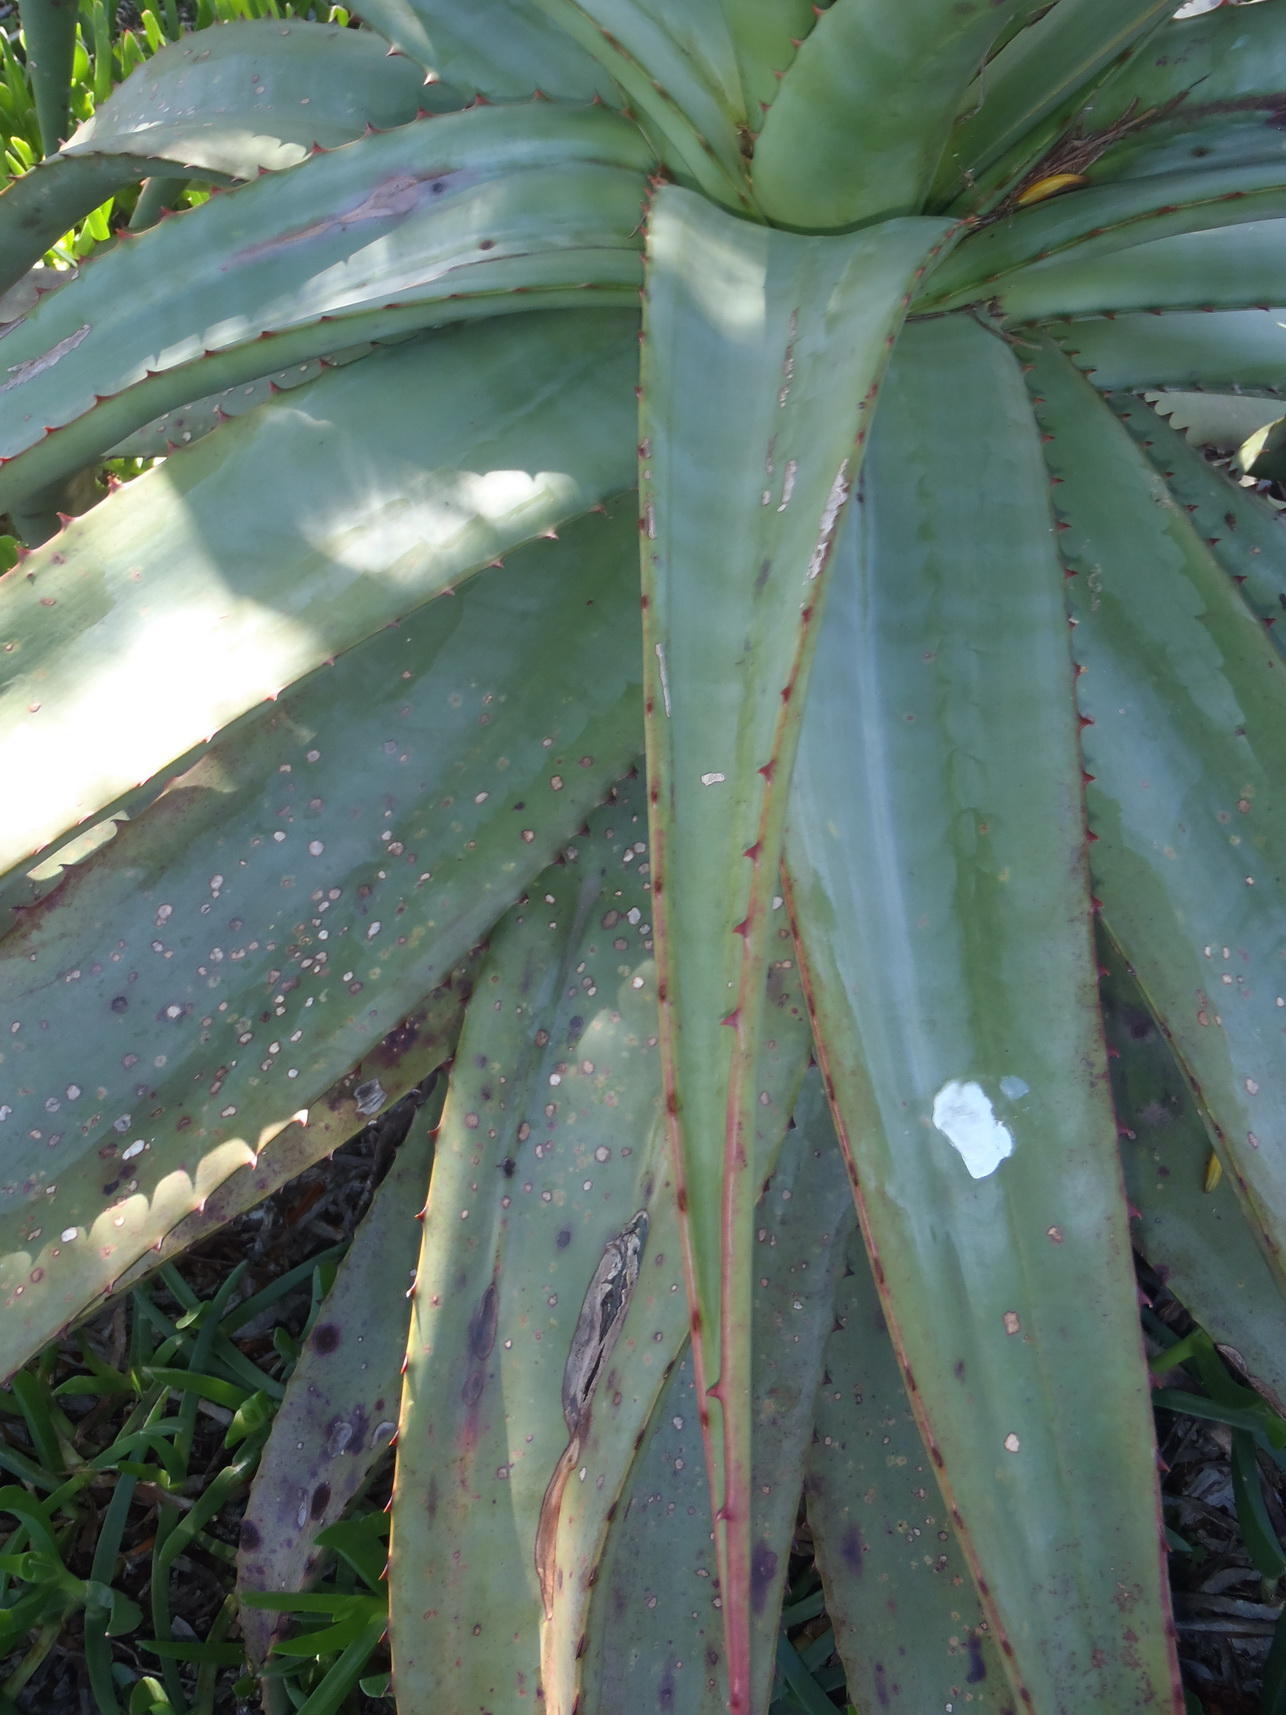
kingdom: Plantae
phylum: Tracheophyta
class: Liliopsida
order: Asparagales
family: Asphodelaceae
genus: Aloe
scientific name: Aloe ferox
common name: Bitter aloe
